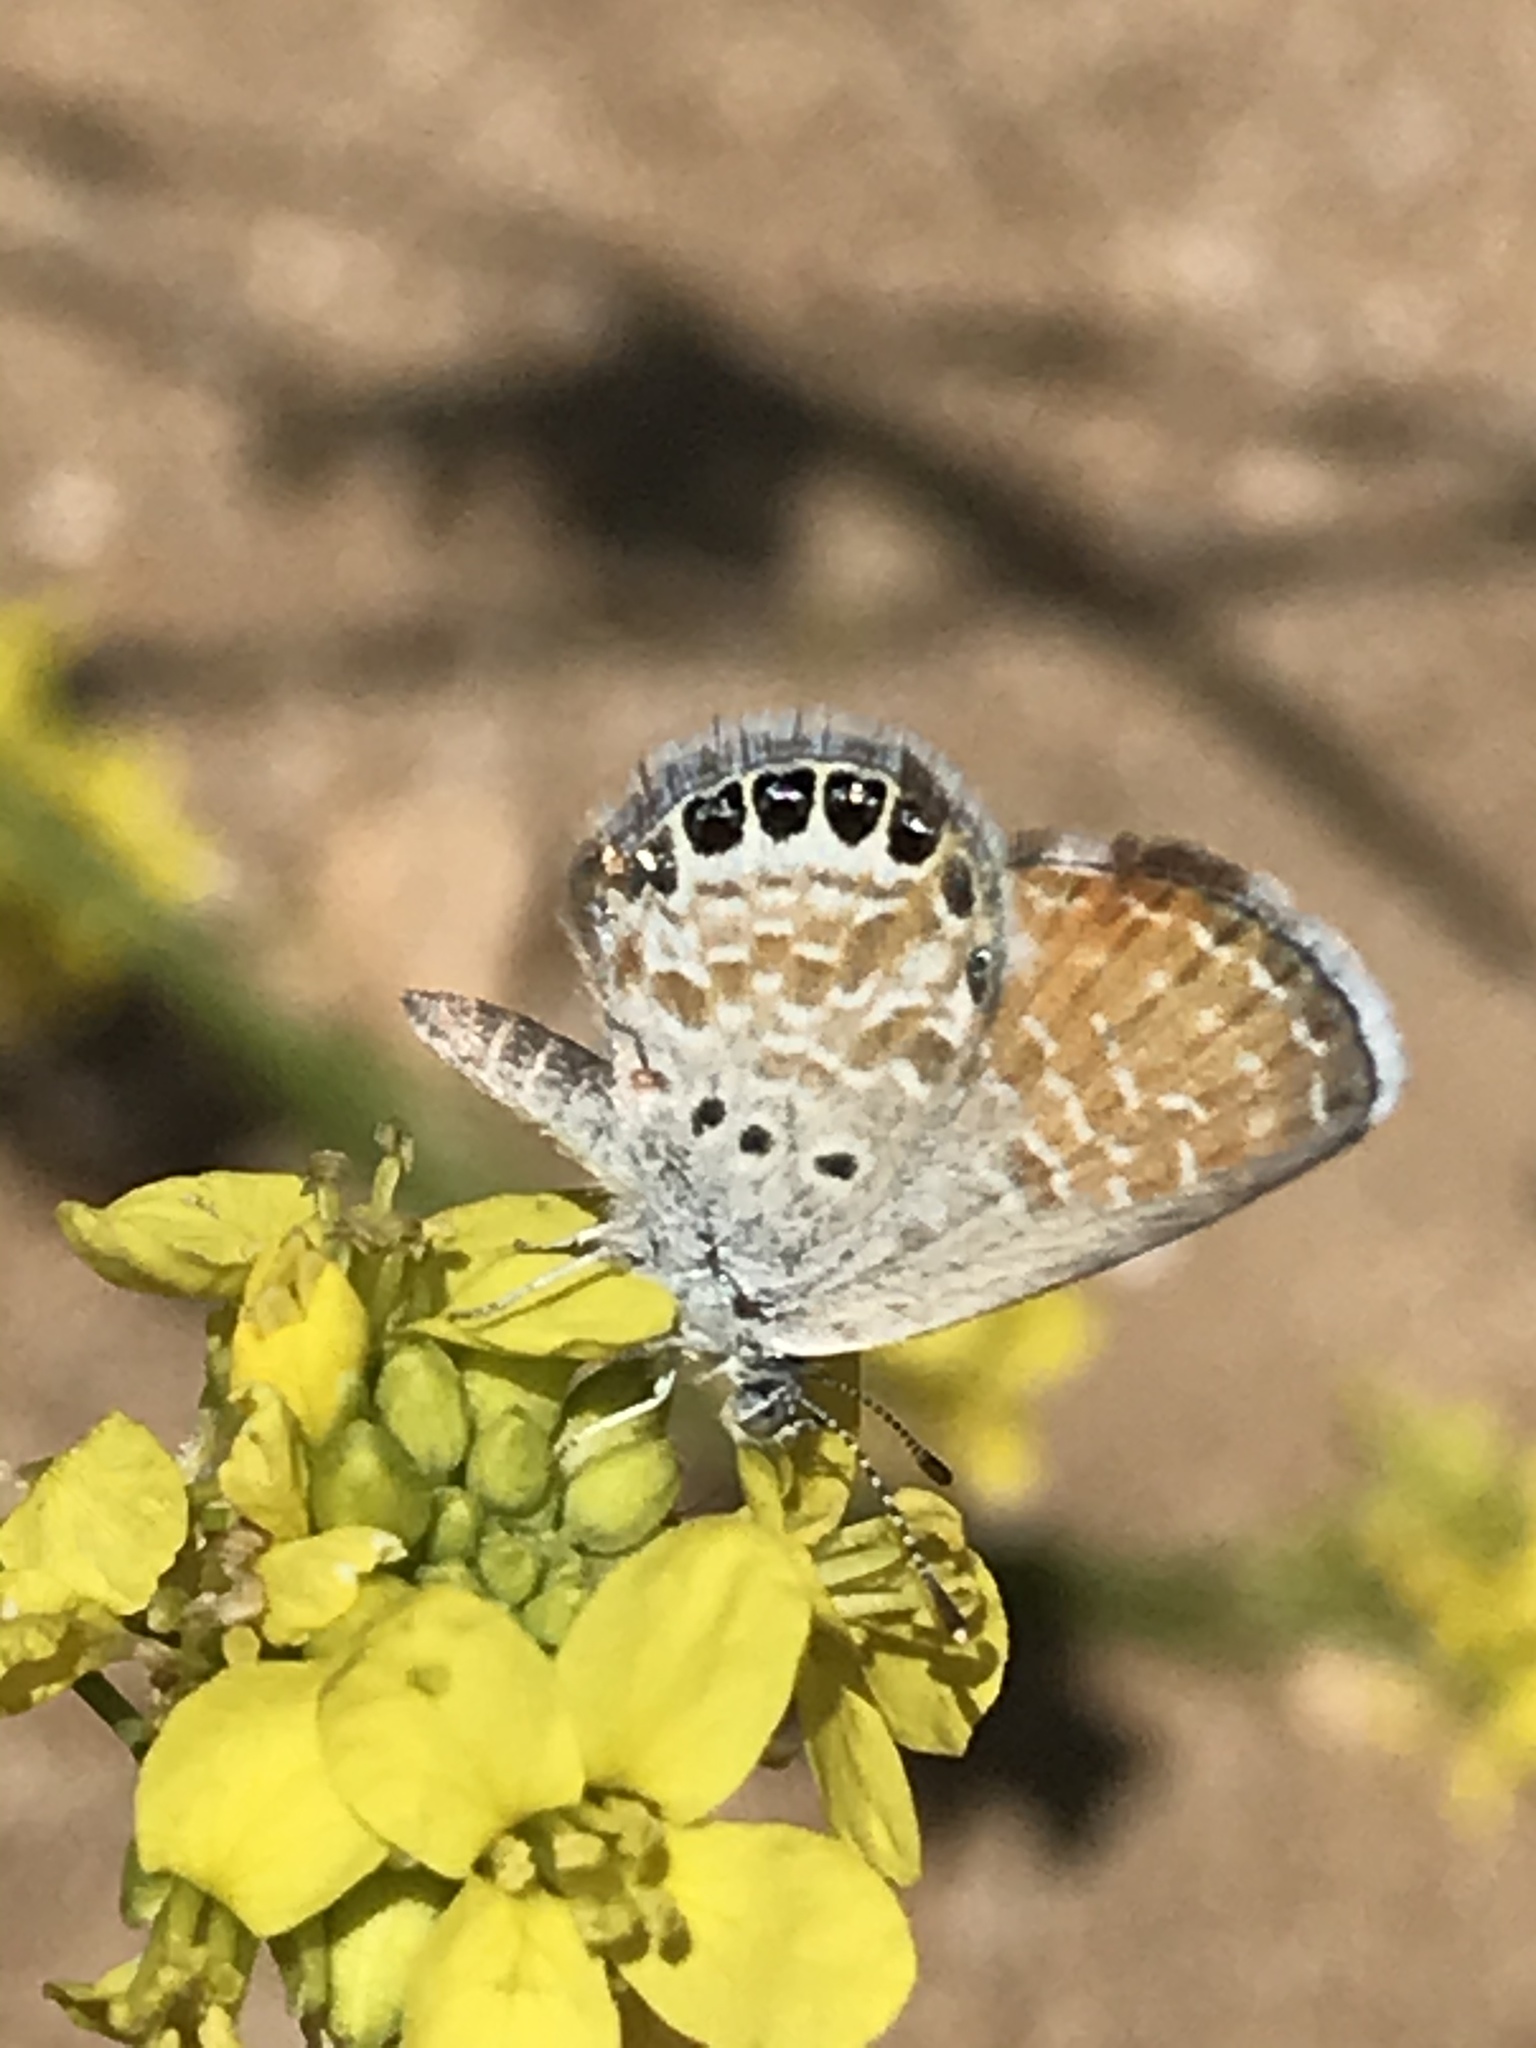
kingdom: Animalia
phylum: Arthropoda
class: Insecta
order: Lepidoptera
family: Lycaenidae
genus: Brephidium
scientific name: Brephidium exilis
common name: Pygmy blue
